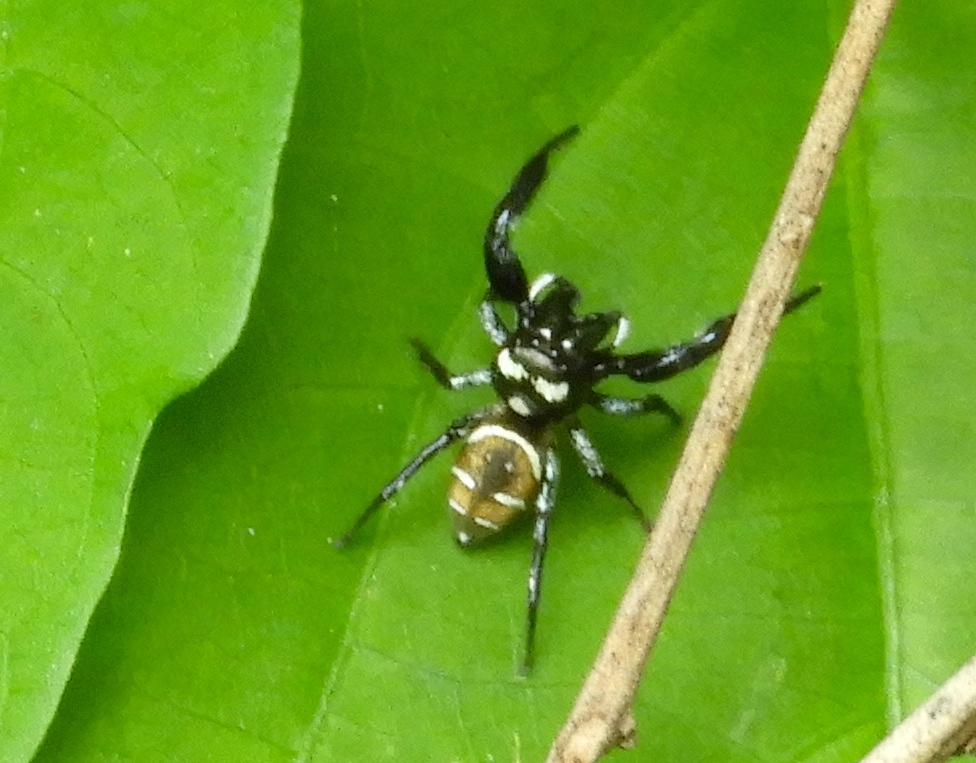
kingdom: Animalia
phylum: Arthropoda
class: Arachnida
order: Araneae
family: Salticidae
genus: Sassacus
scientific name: Sassacus
